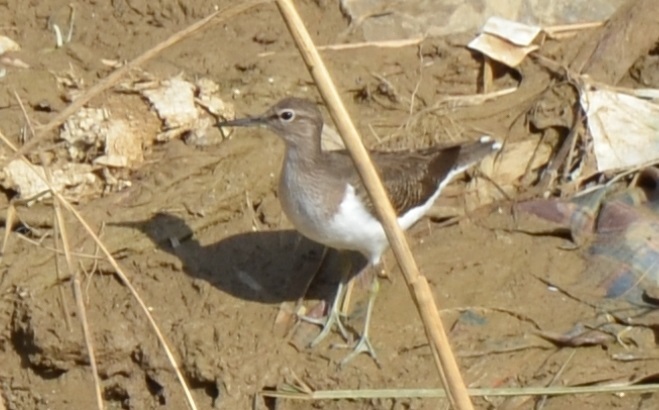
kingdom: Animalia
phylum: Chordata
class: Aves
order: Charadriiformes
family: Scolopacidae
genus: Actitis
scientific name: Actitis hypoleucos
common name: Common sandpiper
